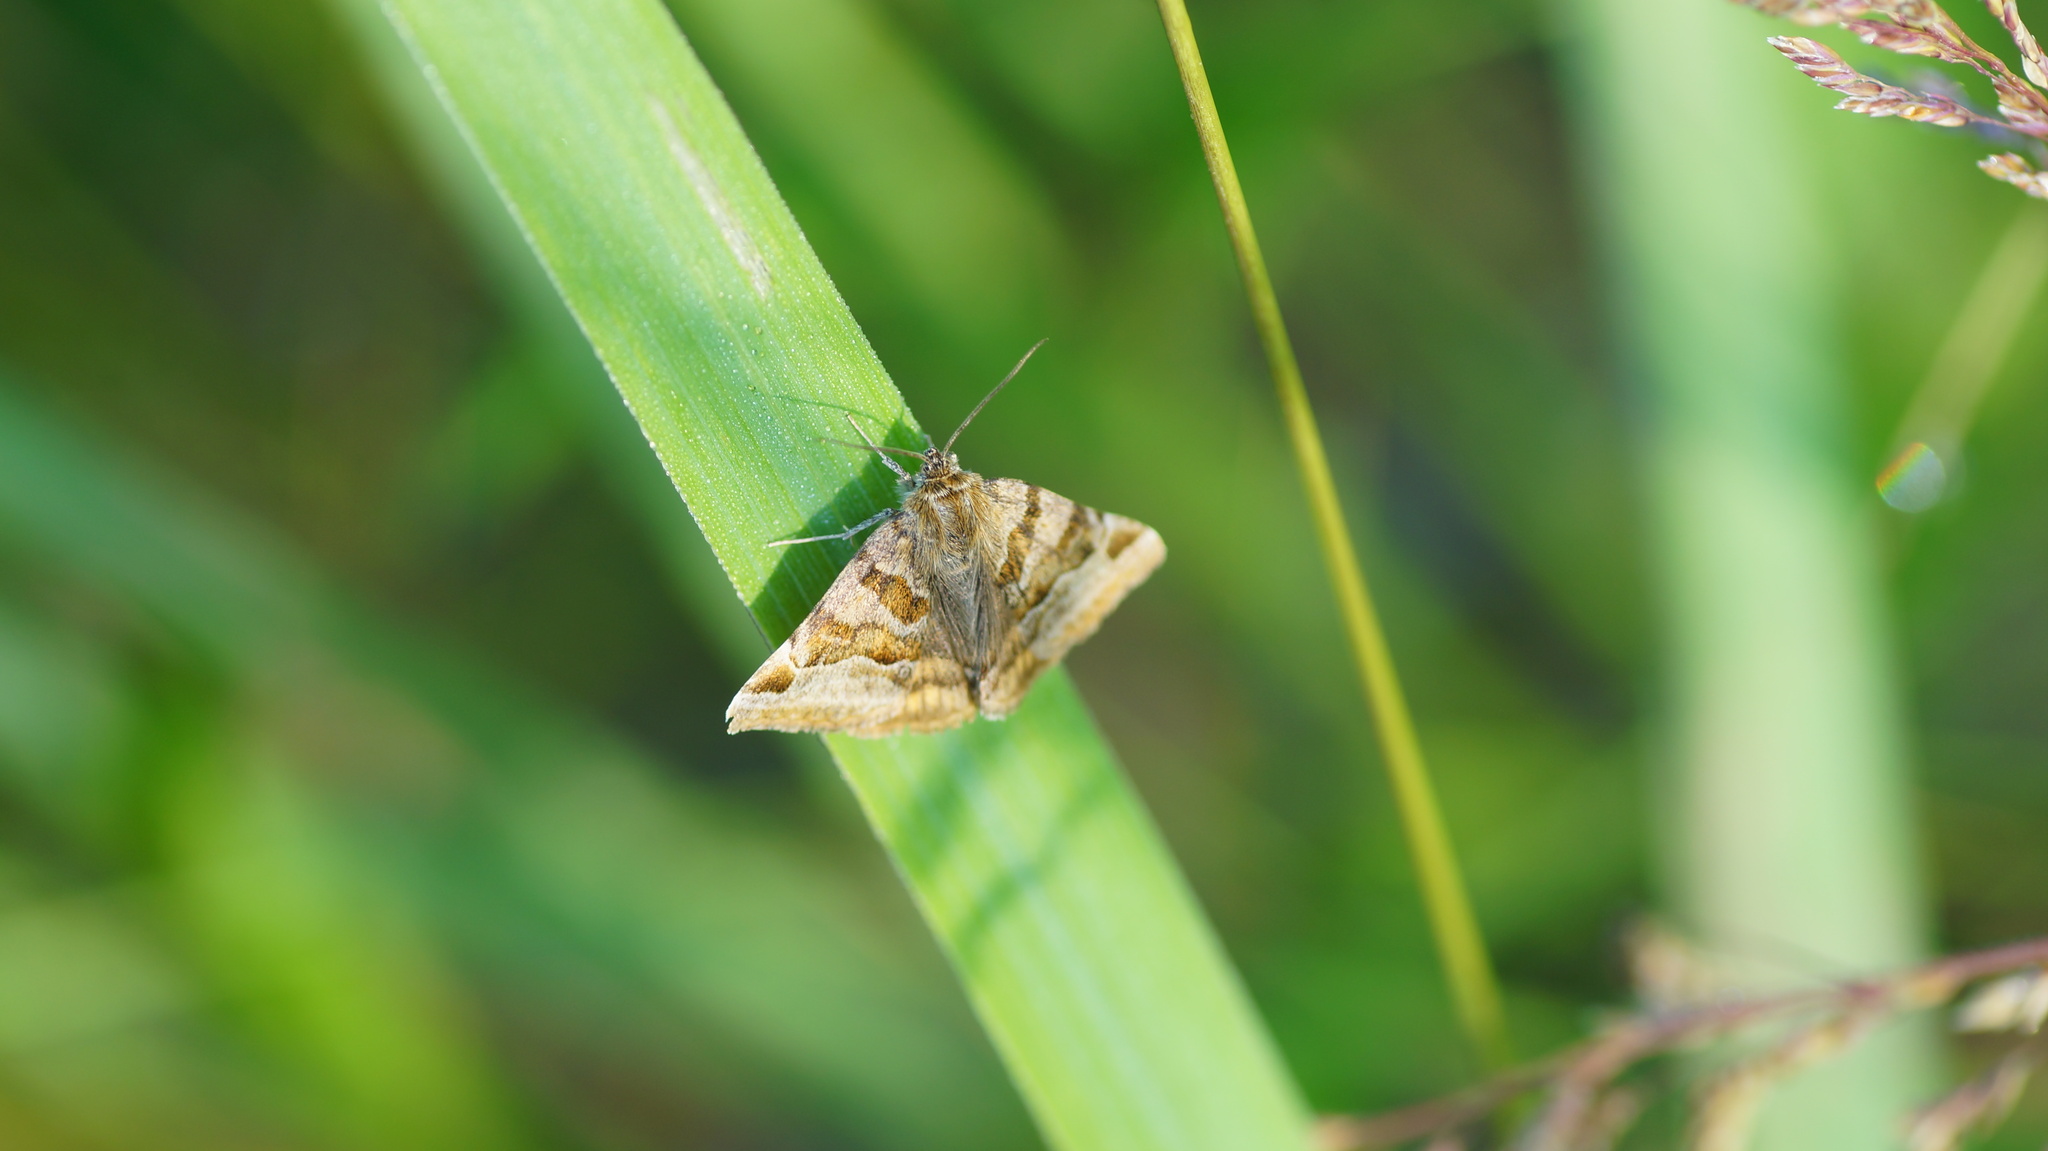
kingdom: Animalia
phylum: Arthropoda
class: Insecta
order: Lepidoptera
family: Erebidae
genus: Euclidia
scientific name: Euclidia glyphica
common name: Burnet companion
